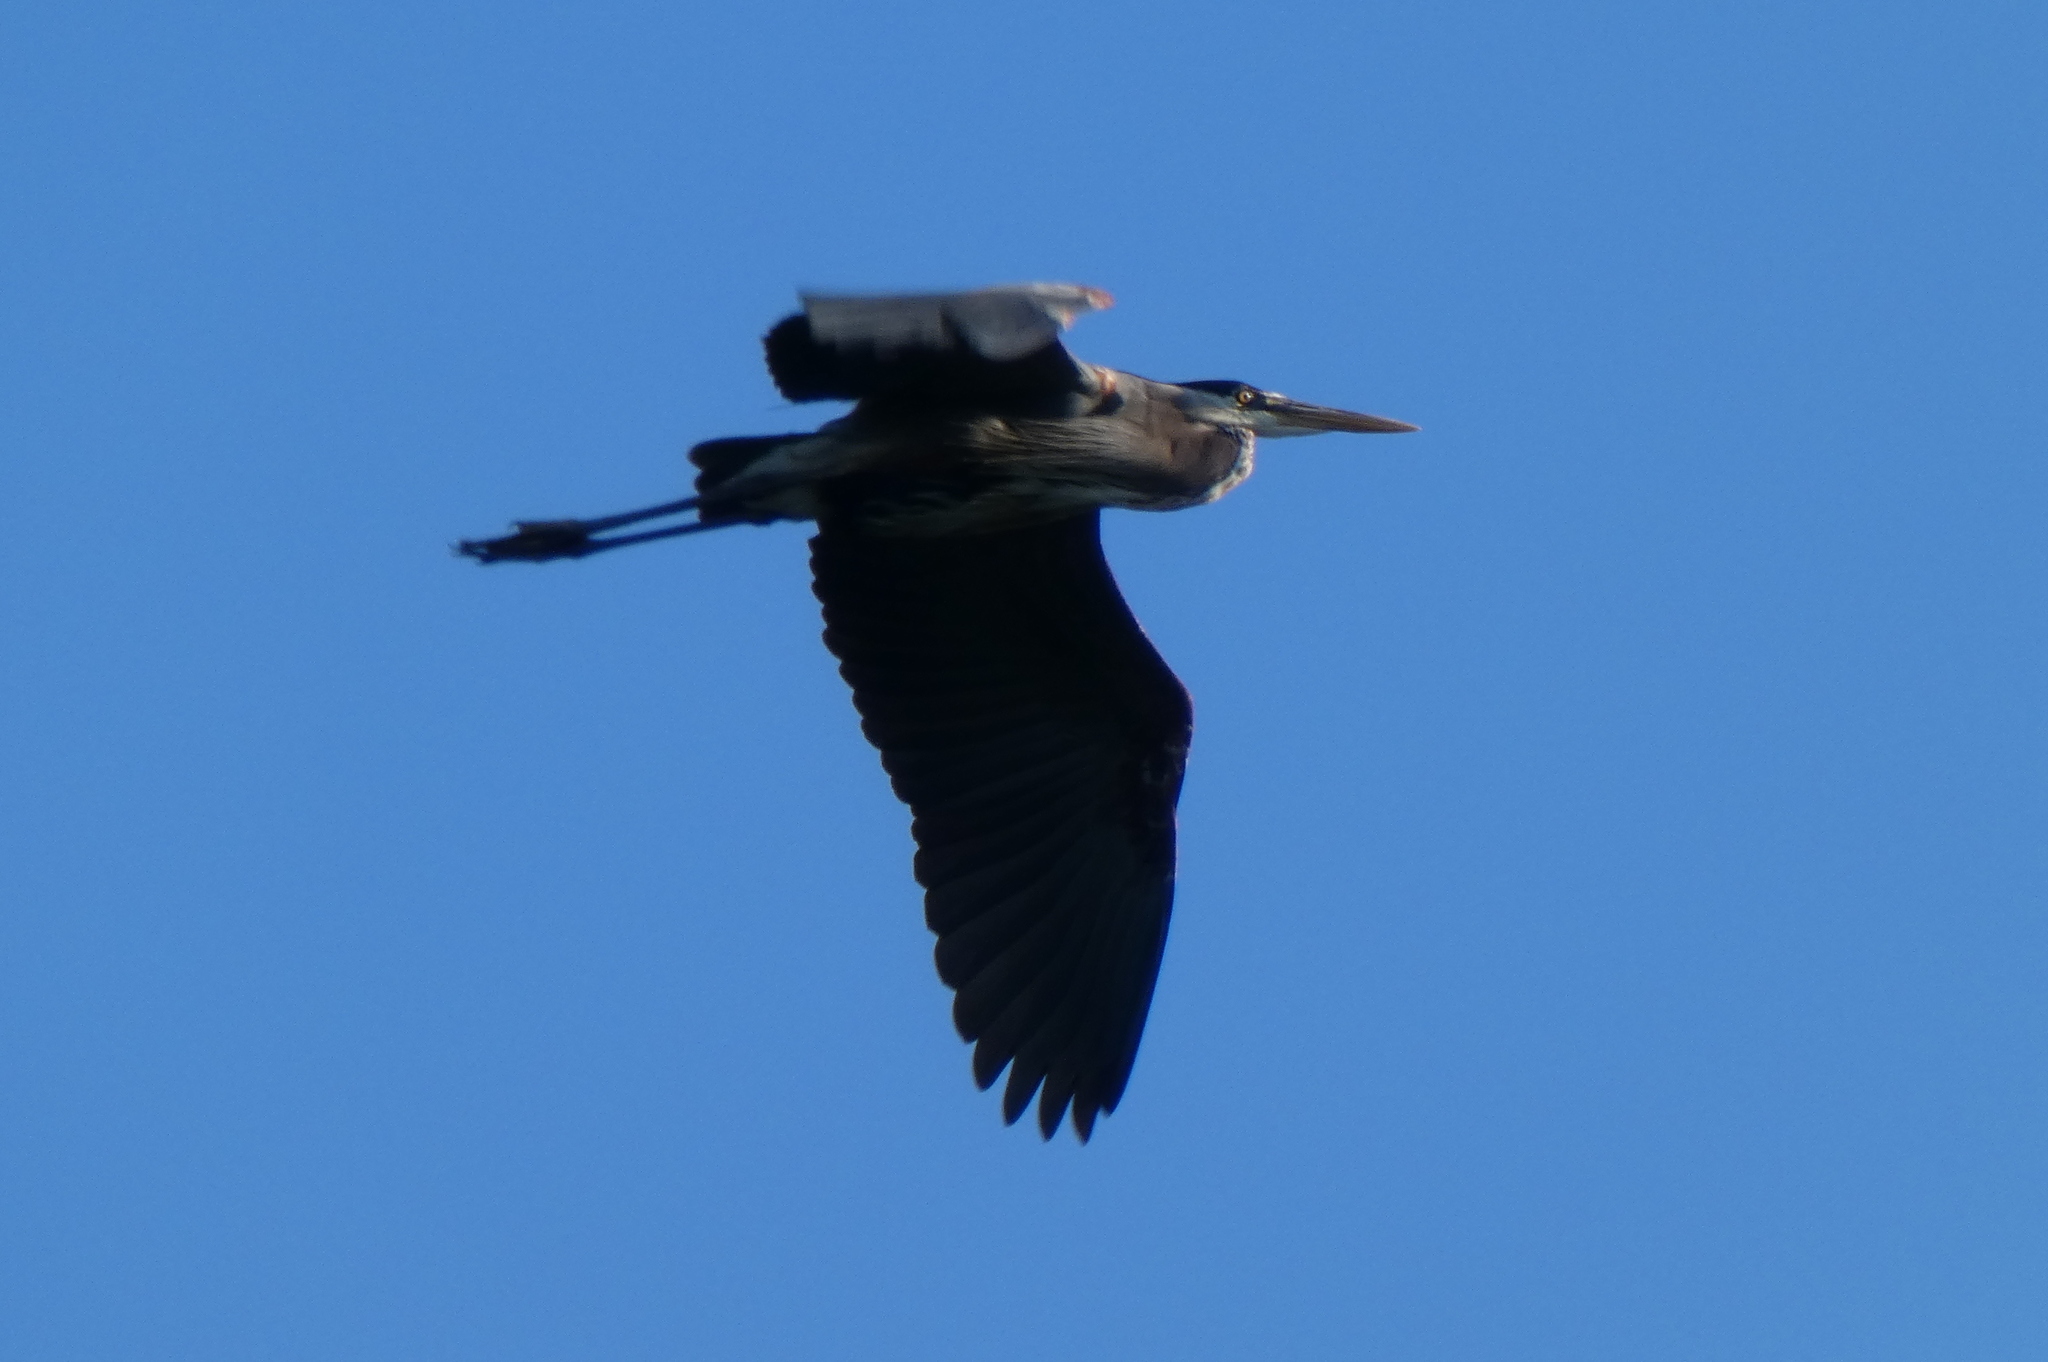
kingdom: Animalia
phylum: Chordata
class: Aves
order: Pelecaniformes
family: Ardeidae
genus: Ardea
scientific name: Ardea herodias
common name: Great blue heron
